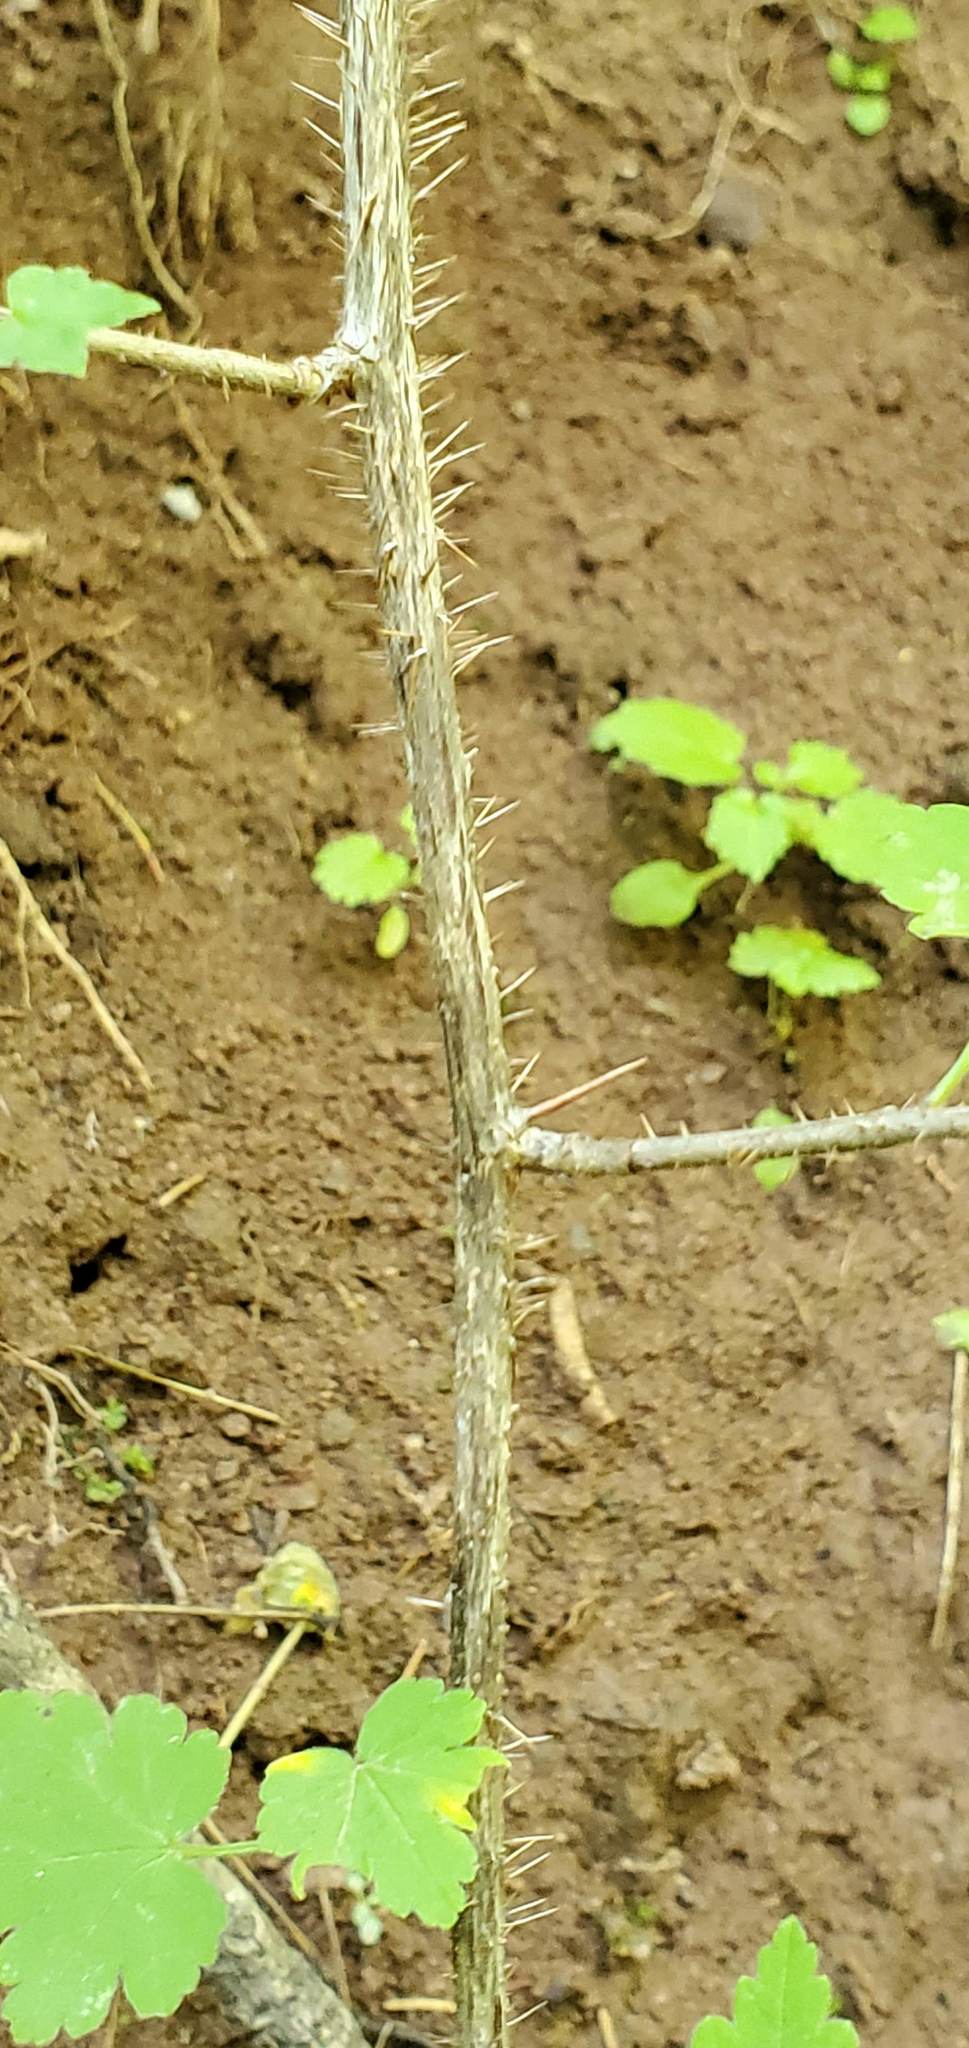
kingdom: Plantae
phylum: Tracheophyta
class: Magnoliopsida
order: Saxifragales
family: Grossulariaceae
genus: Ribes
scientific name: Ribes cynosbati
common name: American gooseberry
